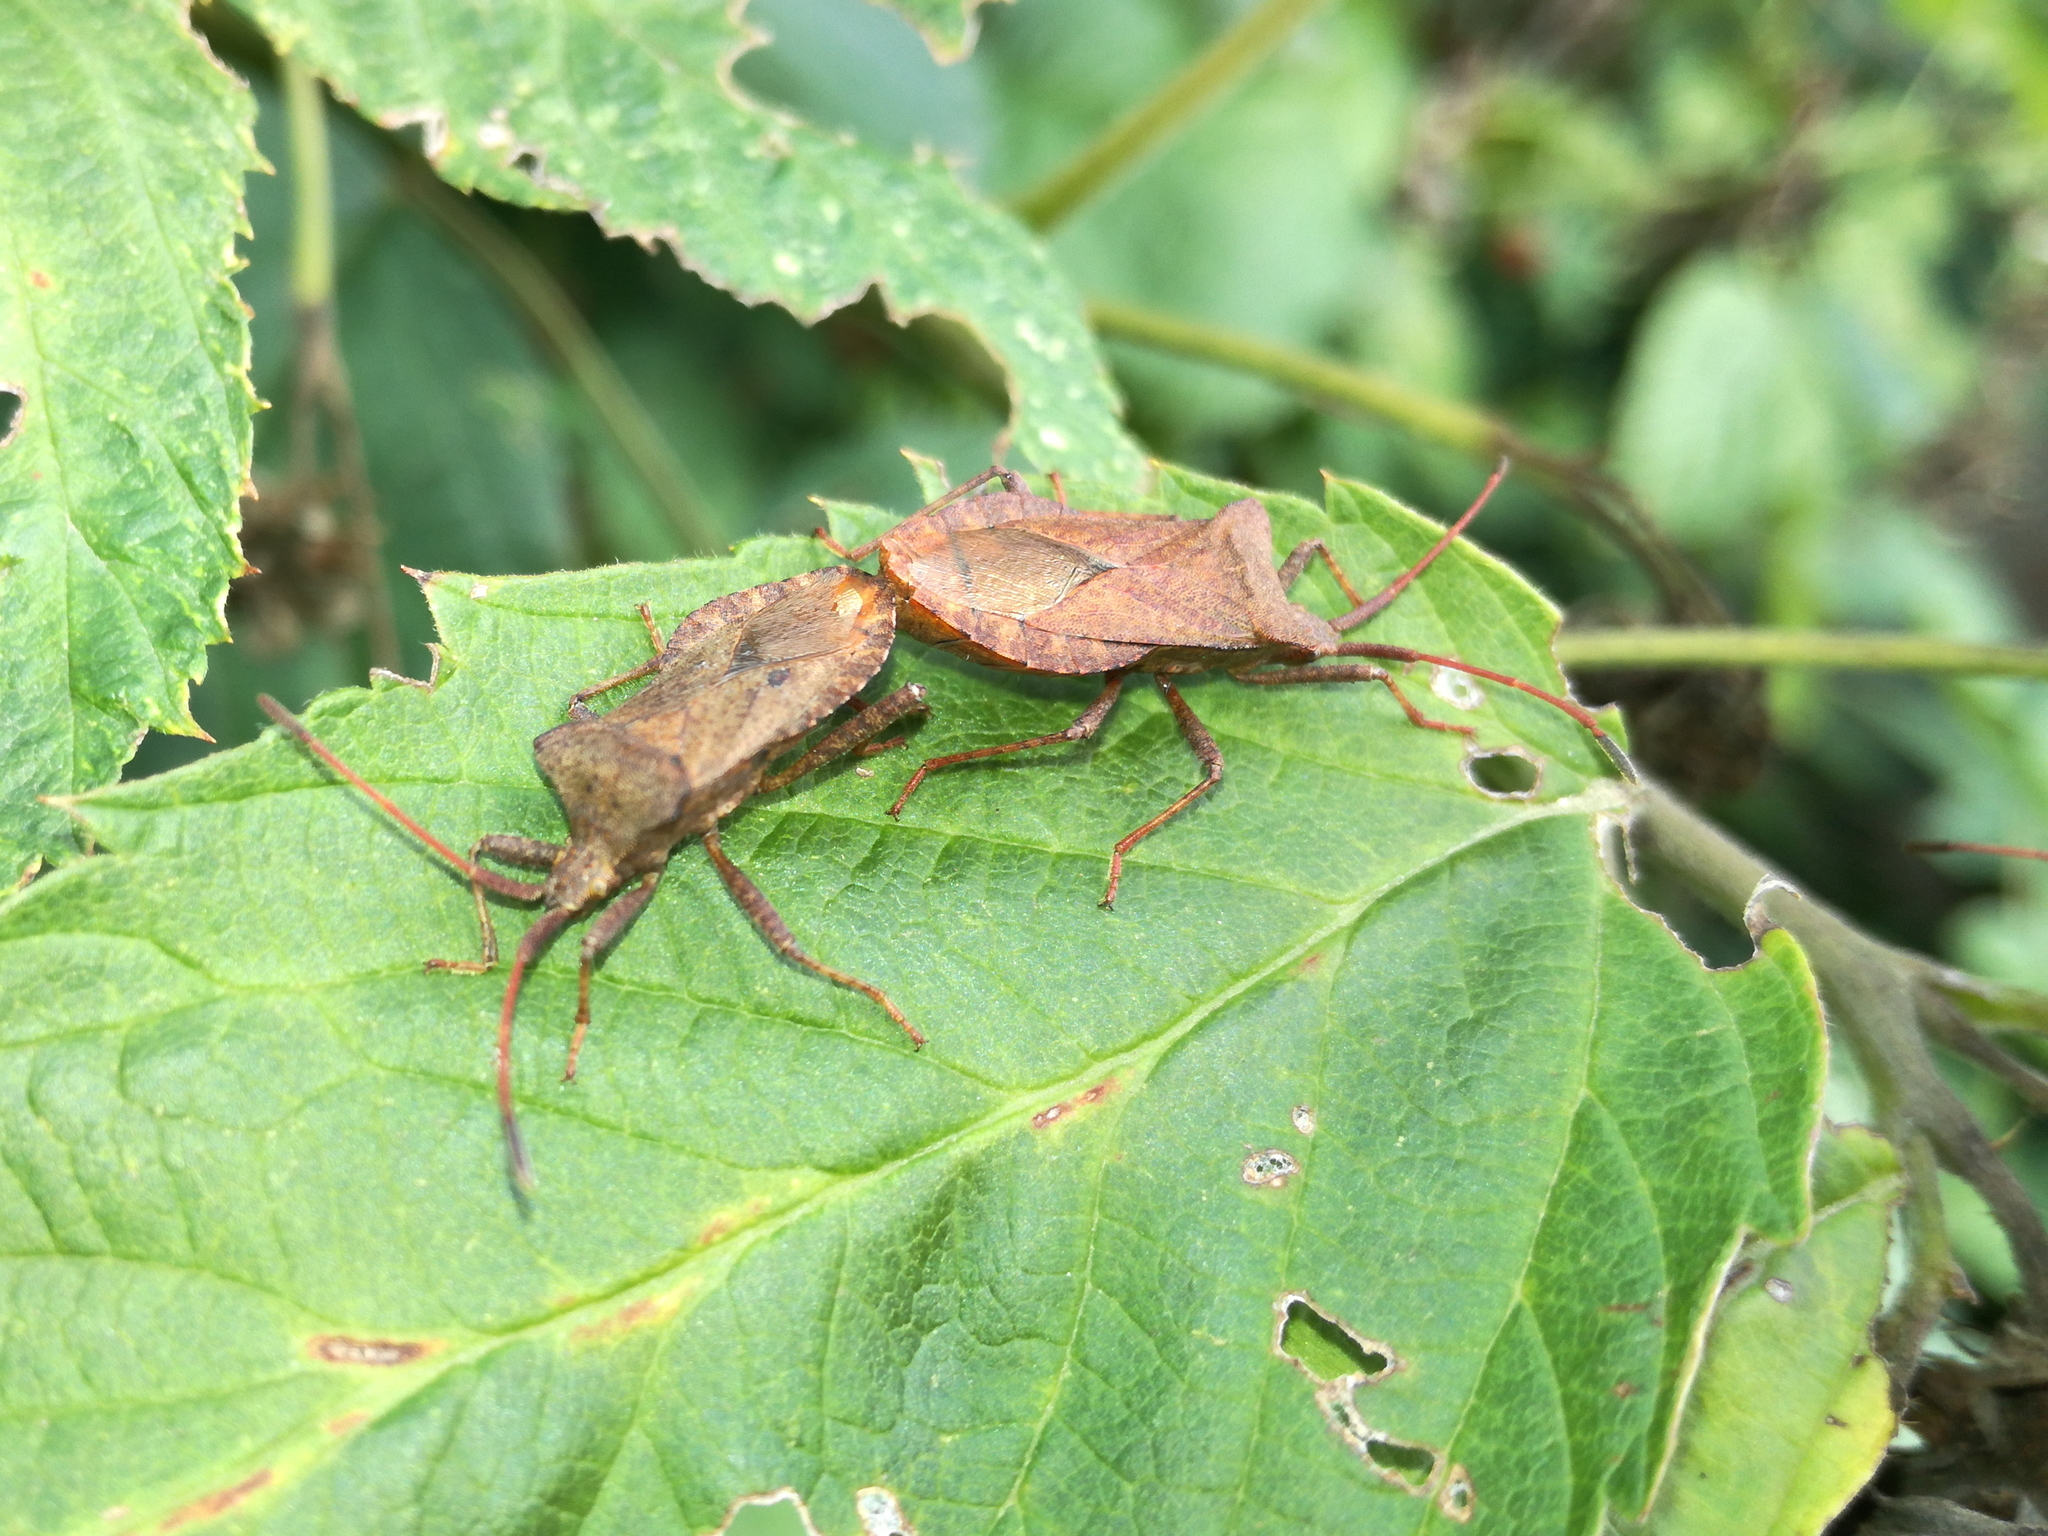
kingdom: Animalia
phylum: Arthropoda
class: Insecta
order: Hemiptera
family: Coreidae
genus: Coreus
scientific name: Coreus marginatus
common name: Dock bug
